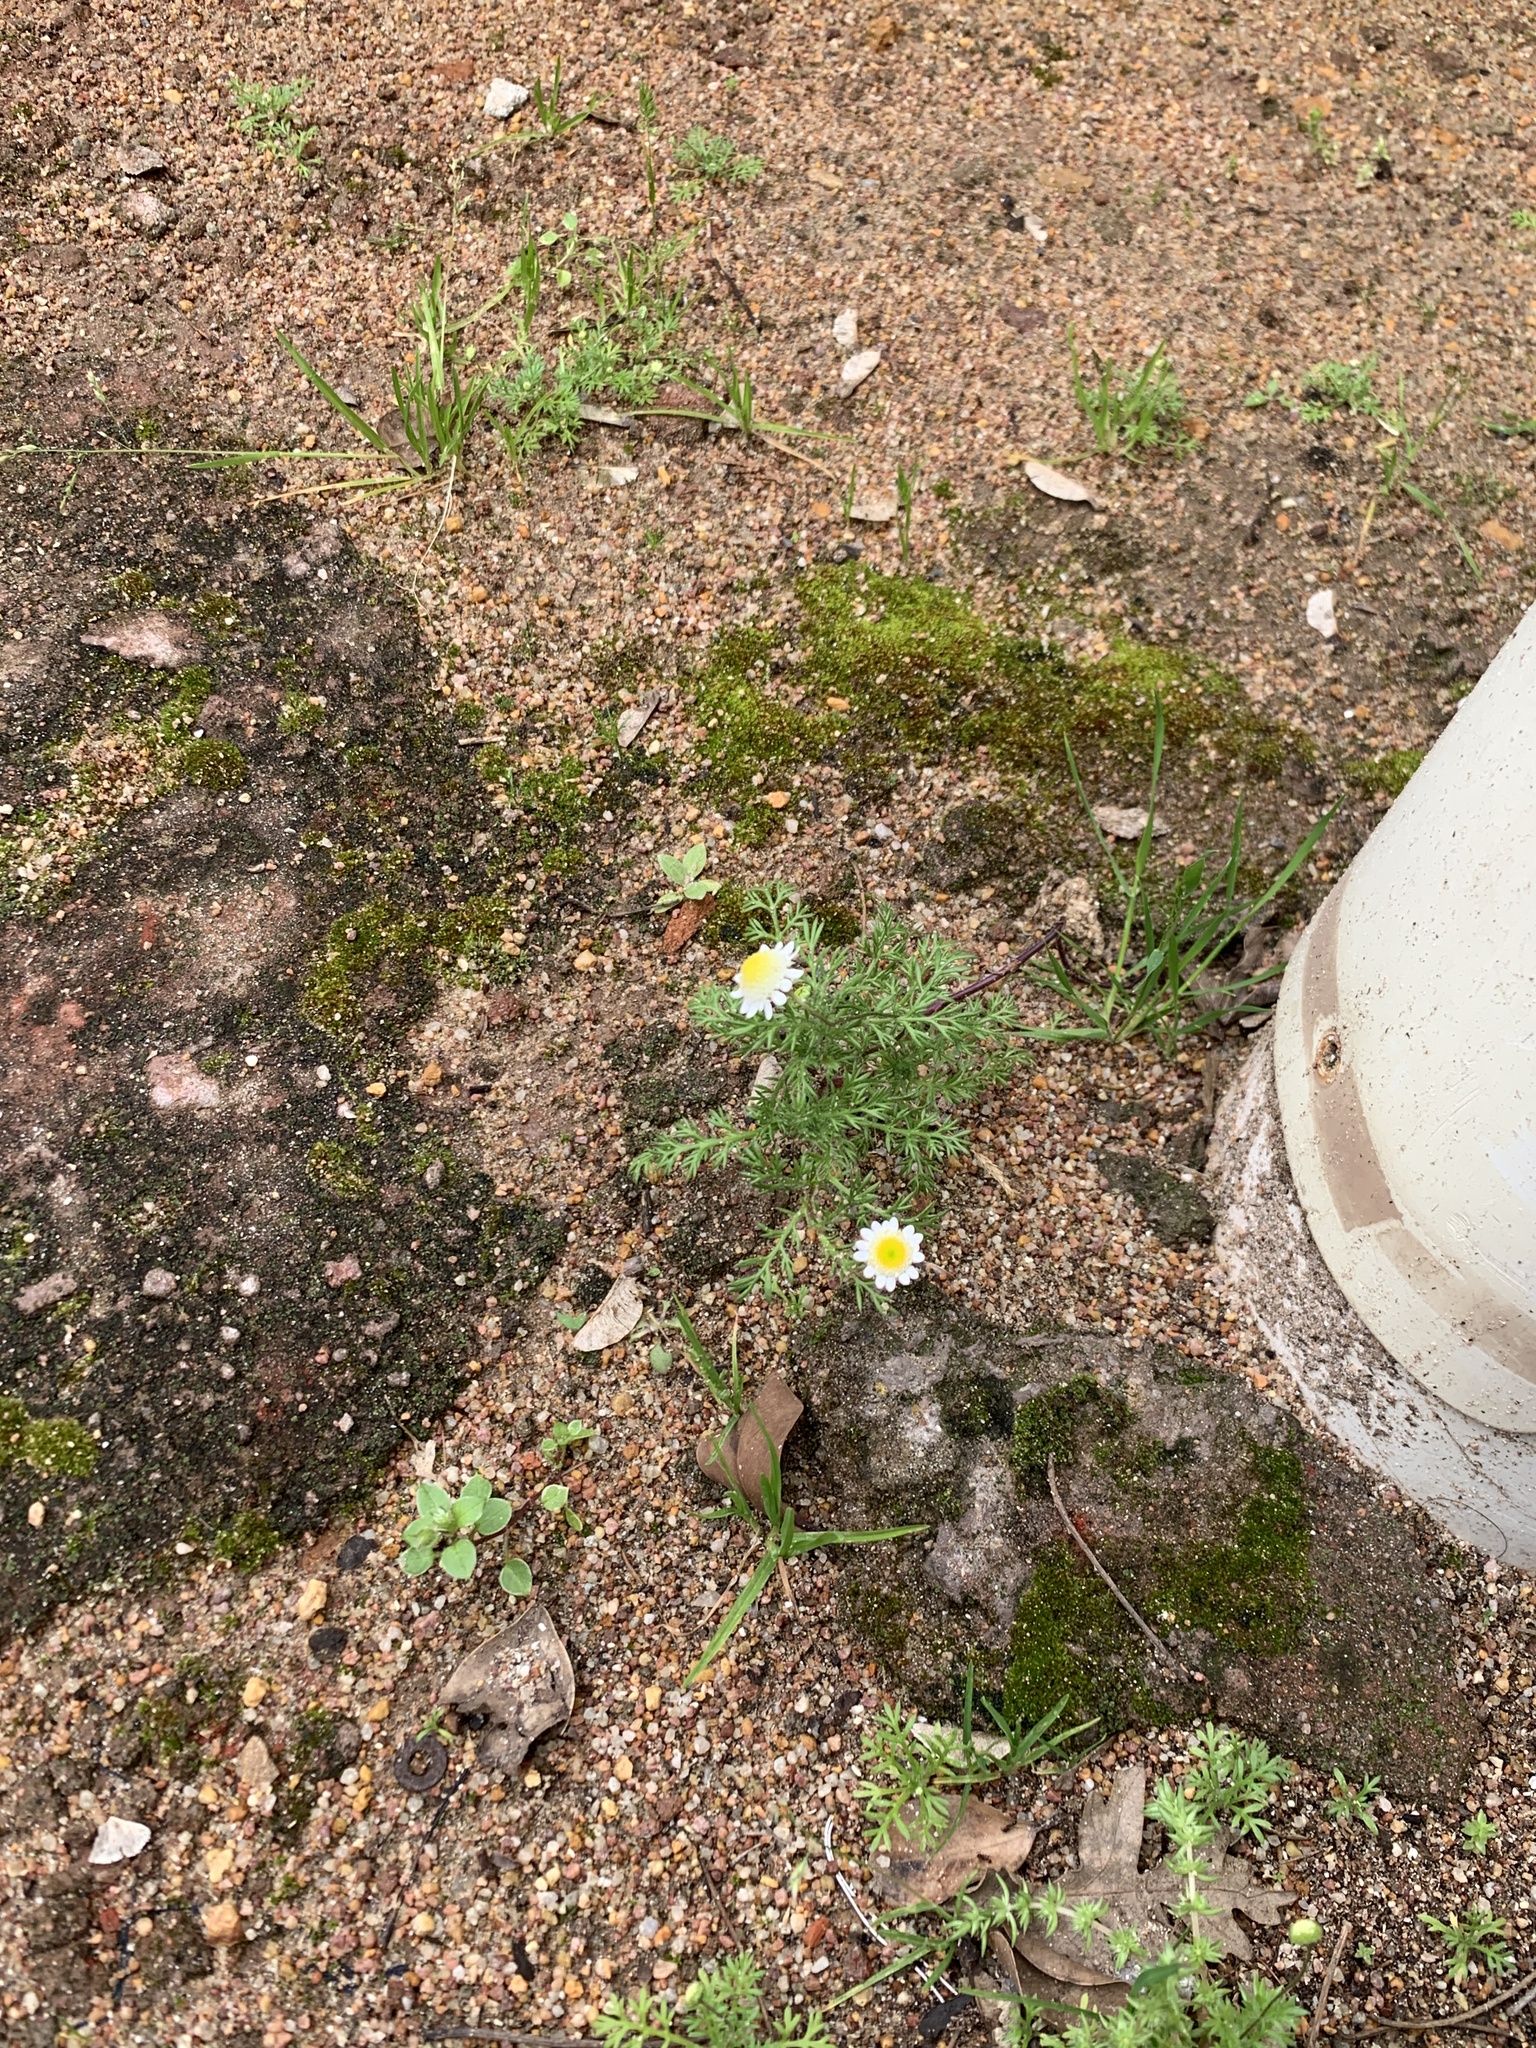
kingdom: Plantae
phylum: Tracheophyta
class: Magnoliopsida
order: Asterales
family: Asteraceae
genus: Cotula
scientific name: Cotula turbinata
